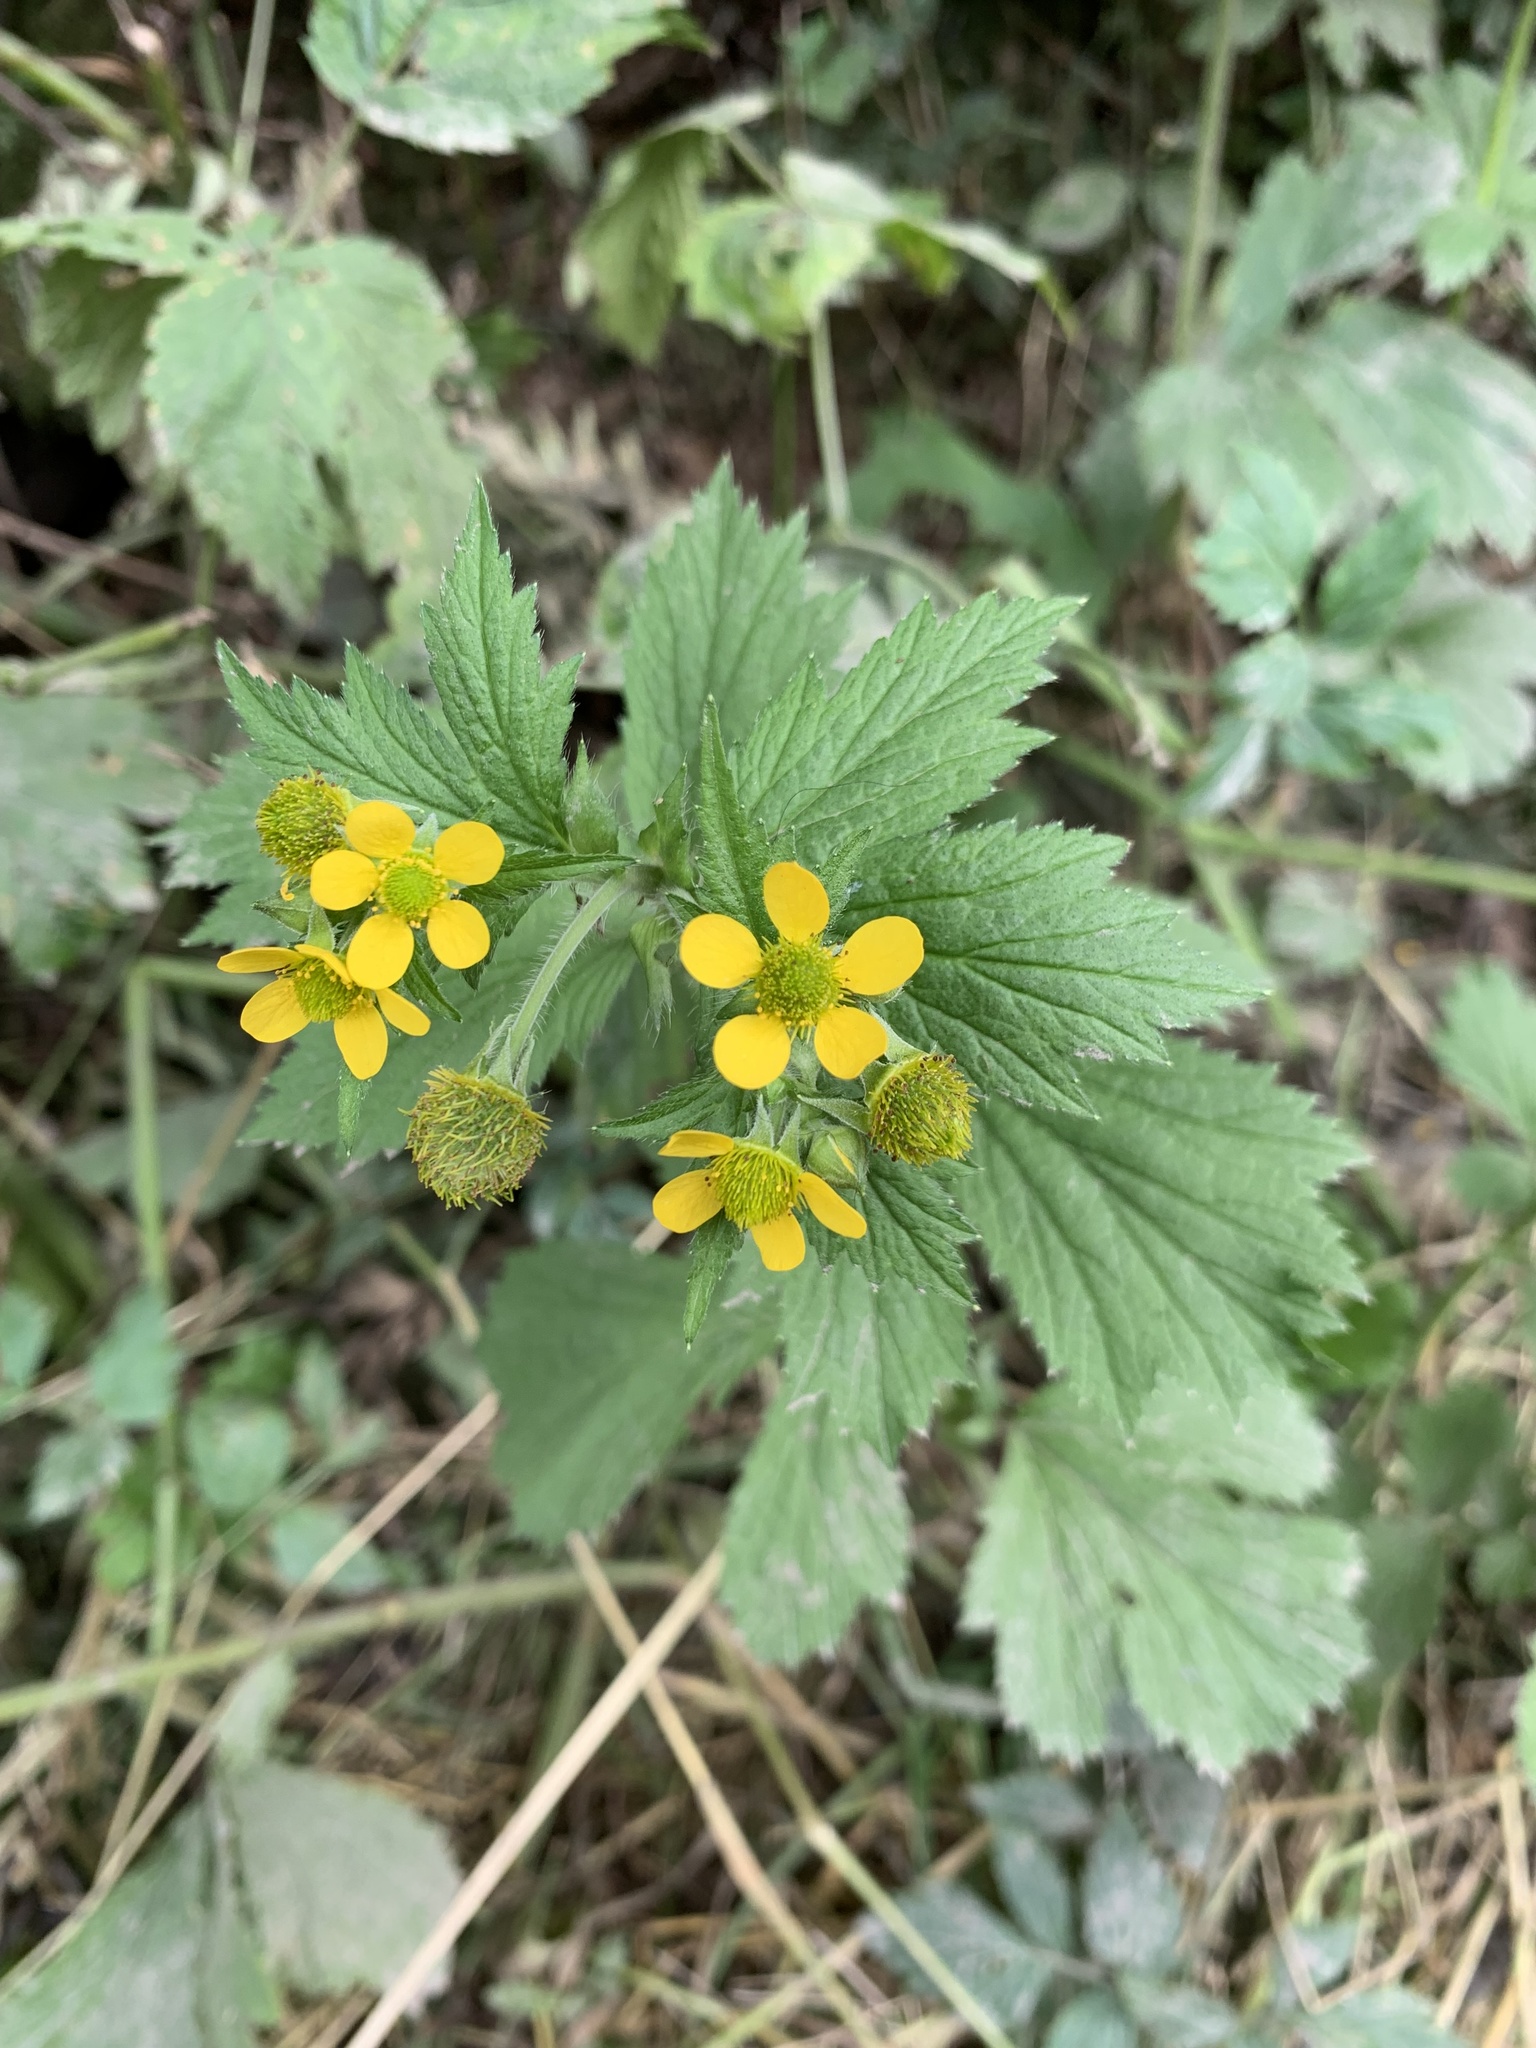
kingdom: Plantae
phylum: Tracheophyta
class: Magnoliopsida
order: Rosales
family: Rosaceae
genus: Geum
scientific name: Geum macrophyllum
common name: Large-leaved avens
